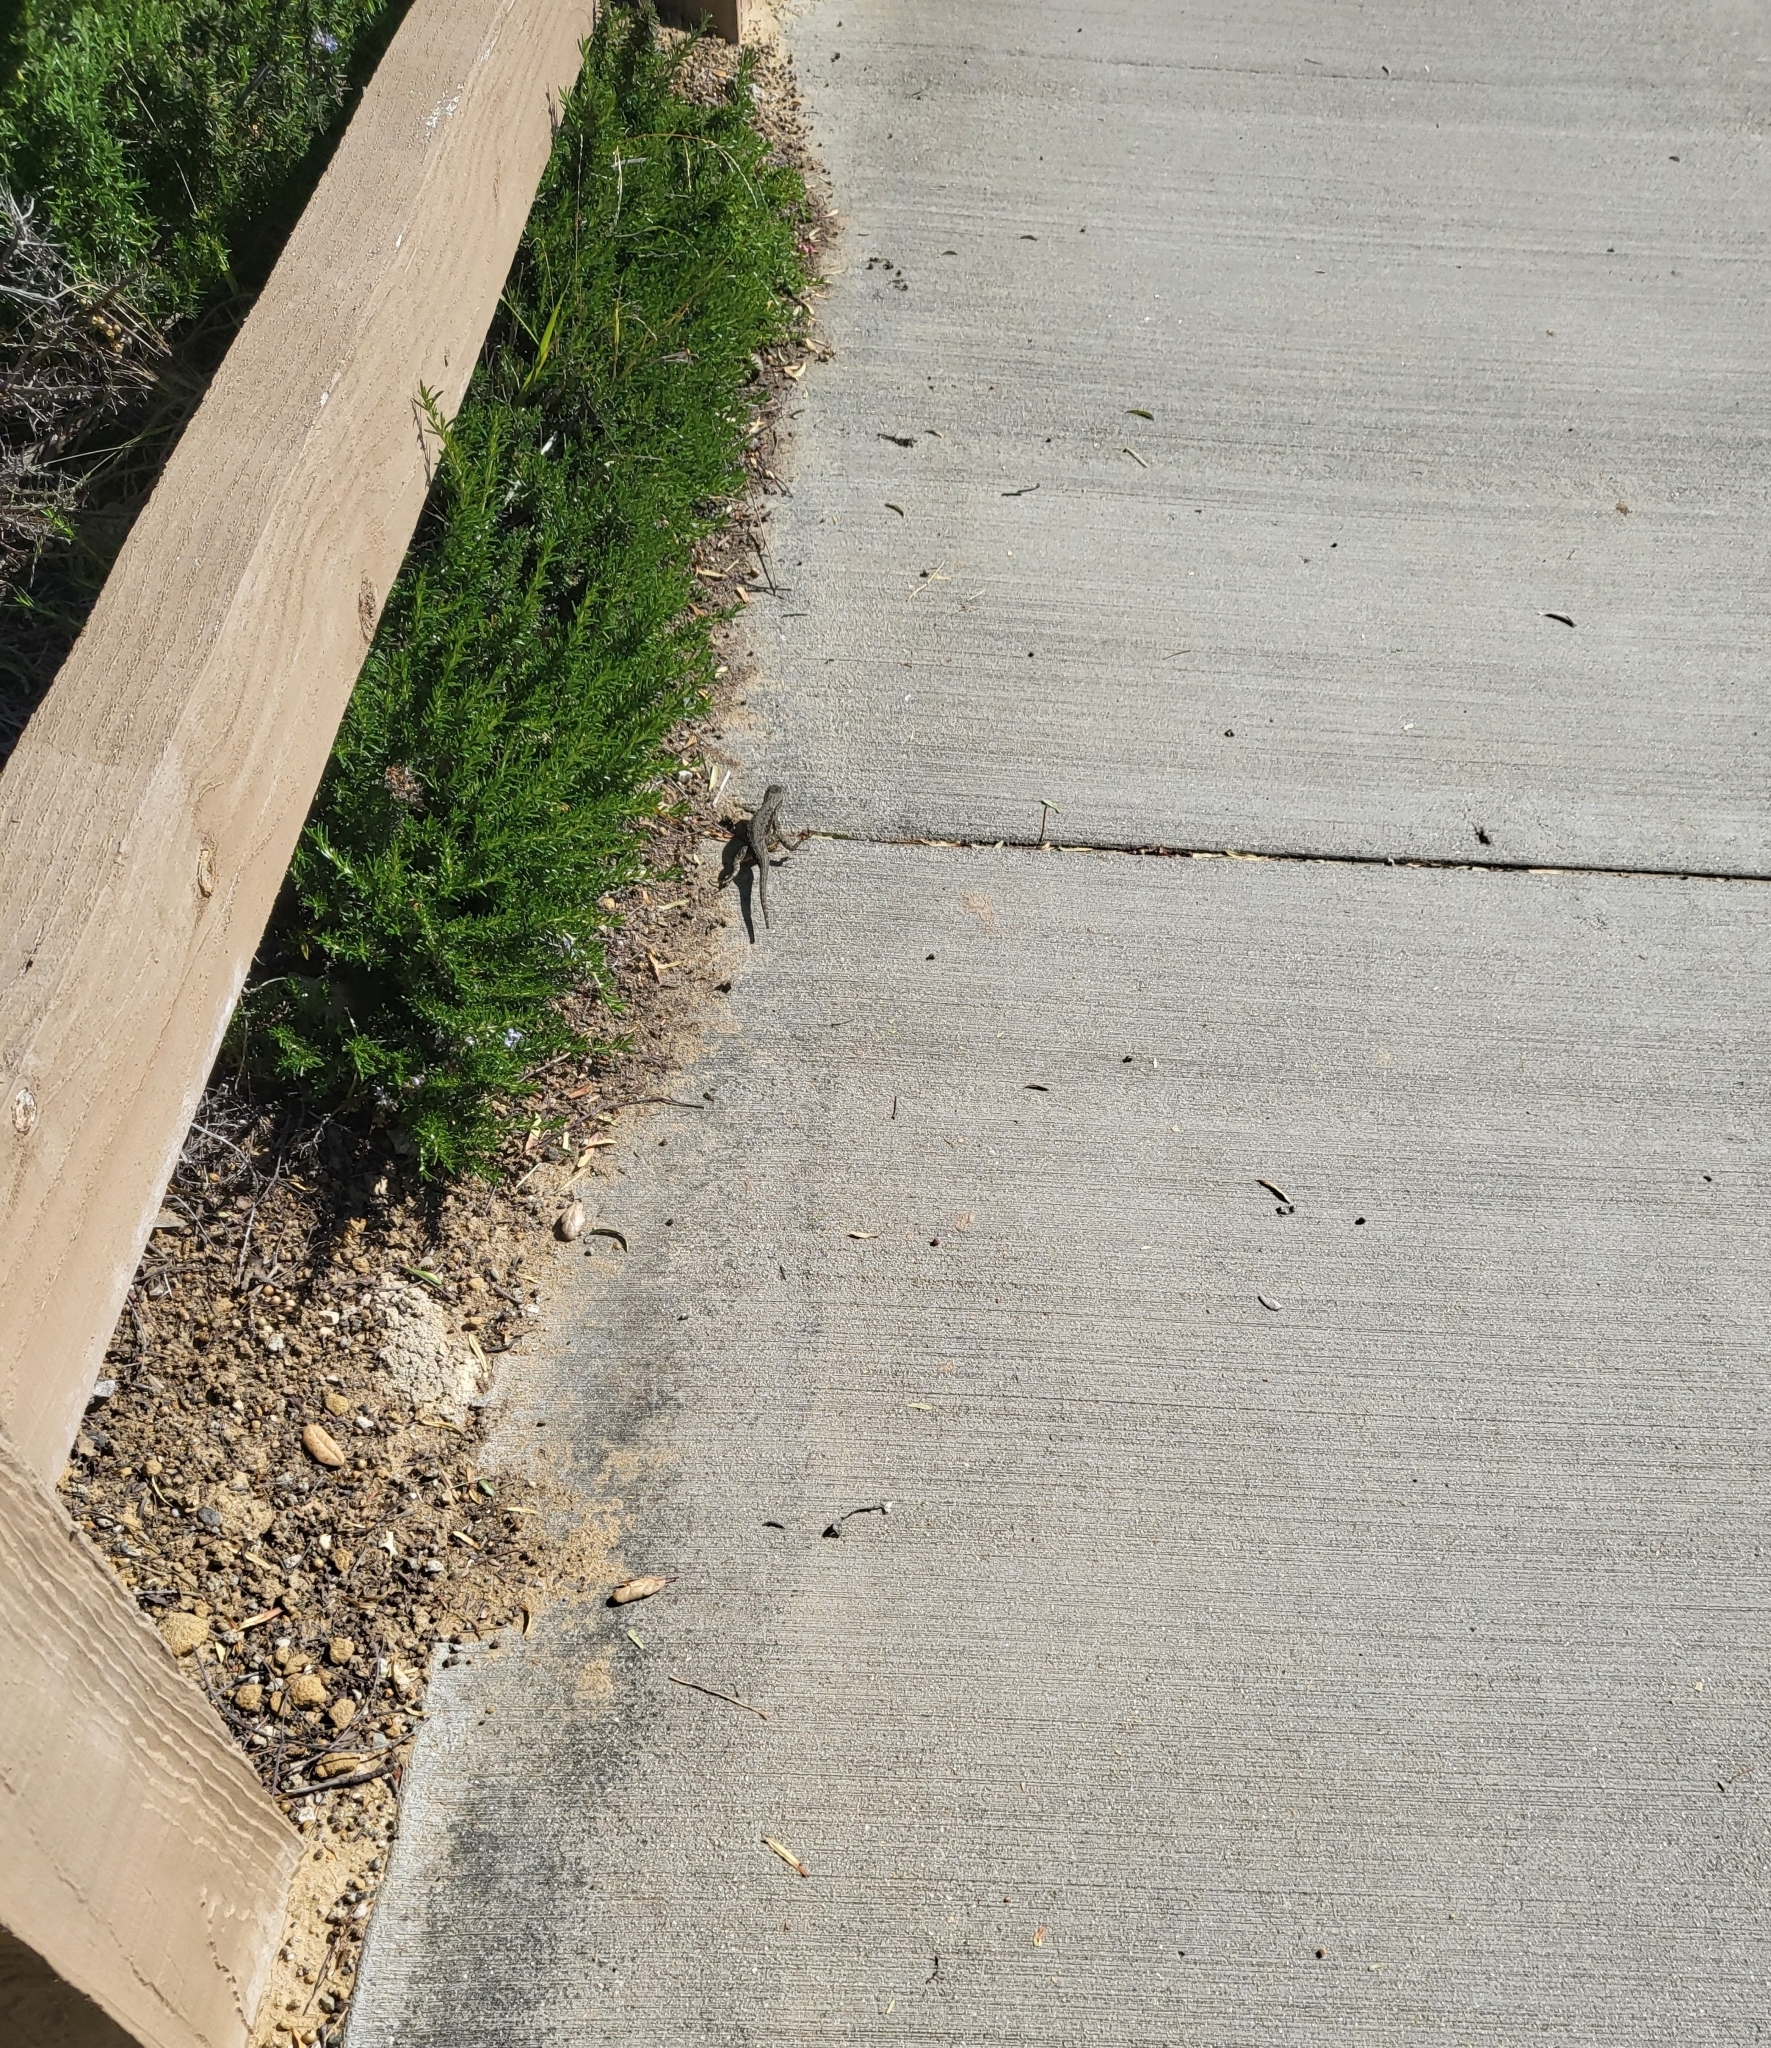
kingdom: Animalia
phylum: Chordata
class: Squamata
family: Phrynosomatidae
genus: Sceloporus
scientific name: Sceloporus occidentalis
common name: Western fence lizard
